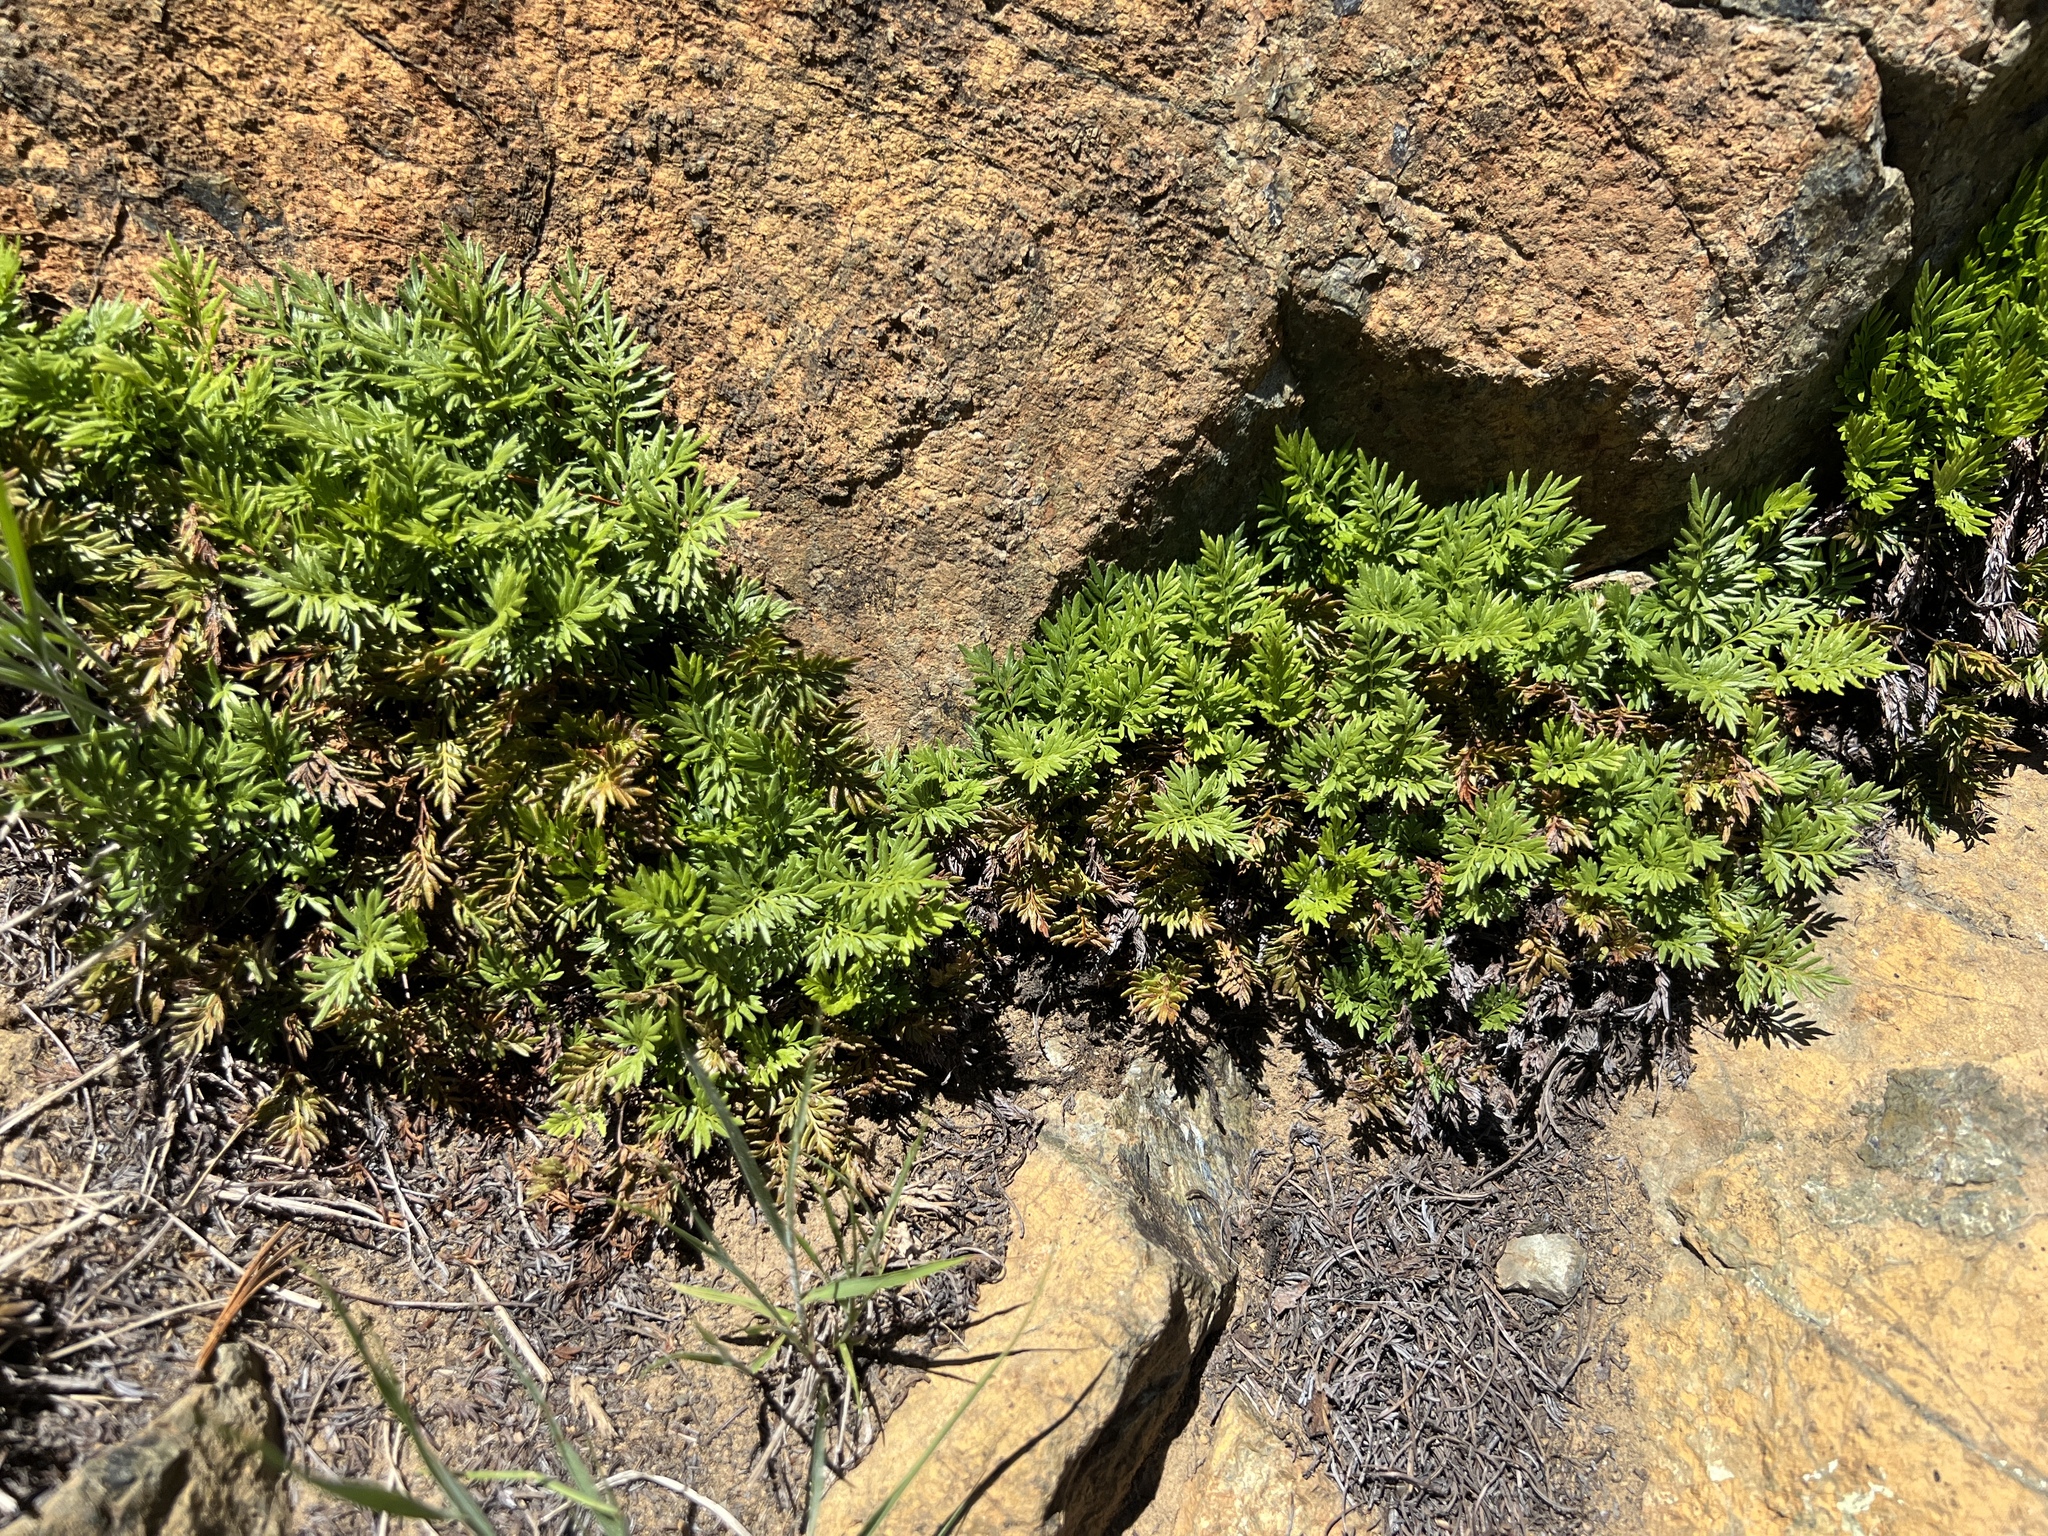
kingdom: Plantae
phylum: Tracheophyta
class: Polypodiopsida
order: Polypodiales
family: Pteridaceae
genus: Aspidotis
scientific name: Aspidotis densa
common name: Indian's dream
